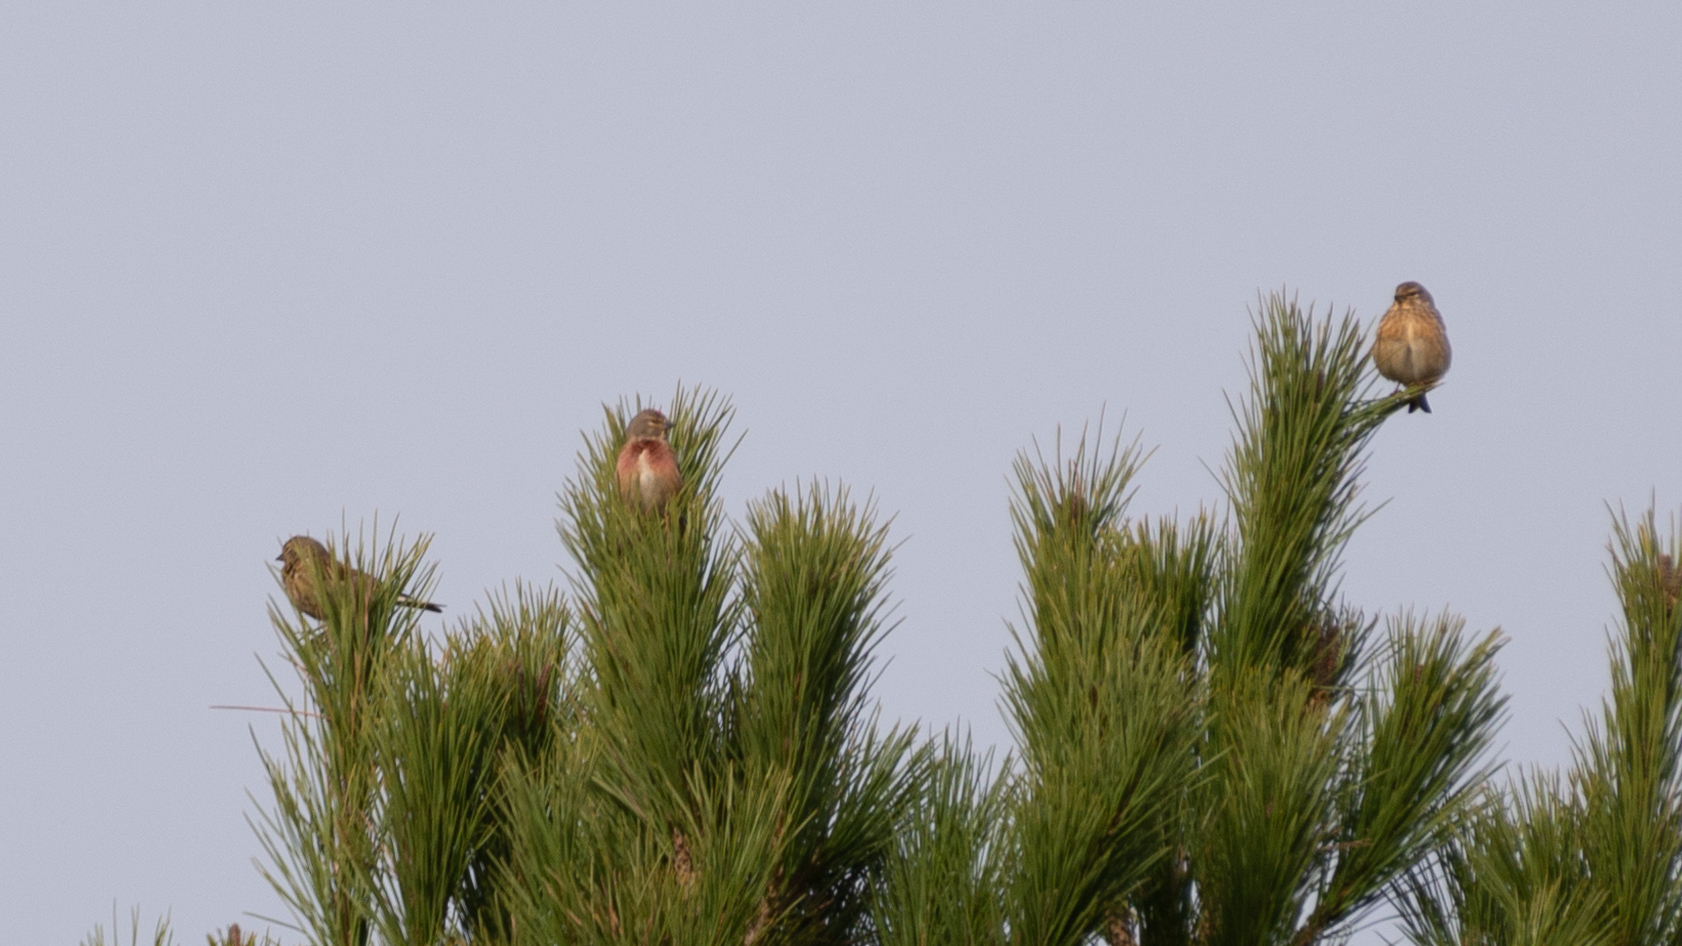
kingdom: Animalia
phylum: Chordata
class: Aves
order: Passeriformes
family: Fringillidae
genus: Linaria
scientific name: Linaria cannabina
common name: Common linnet
